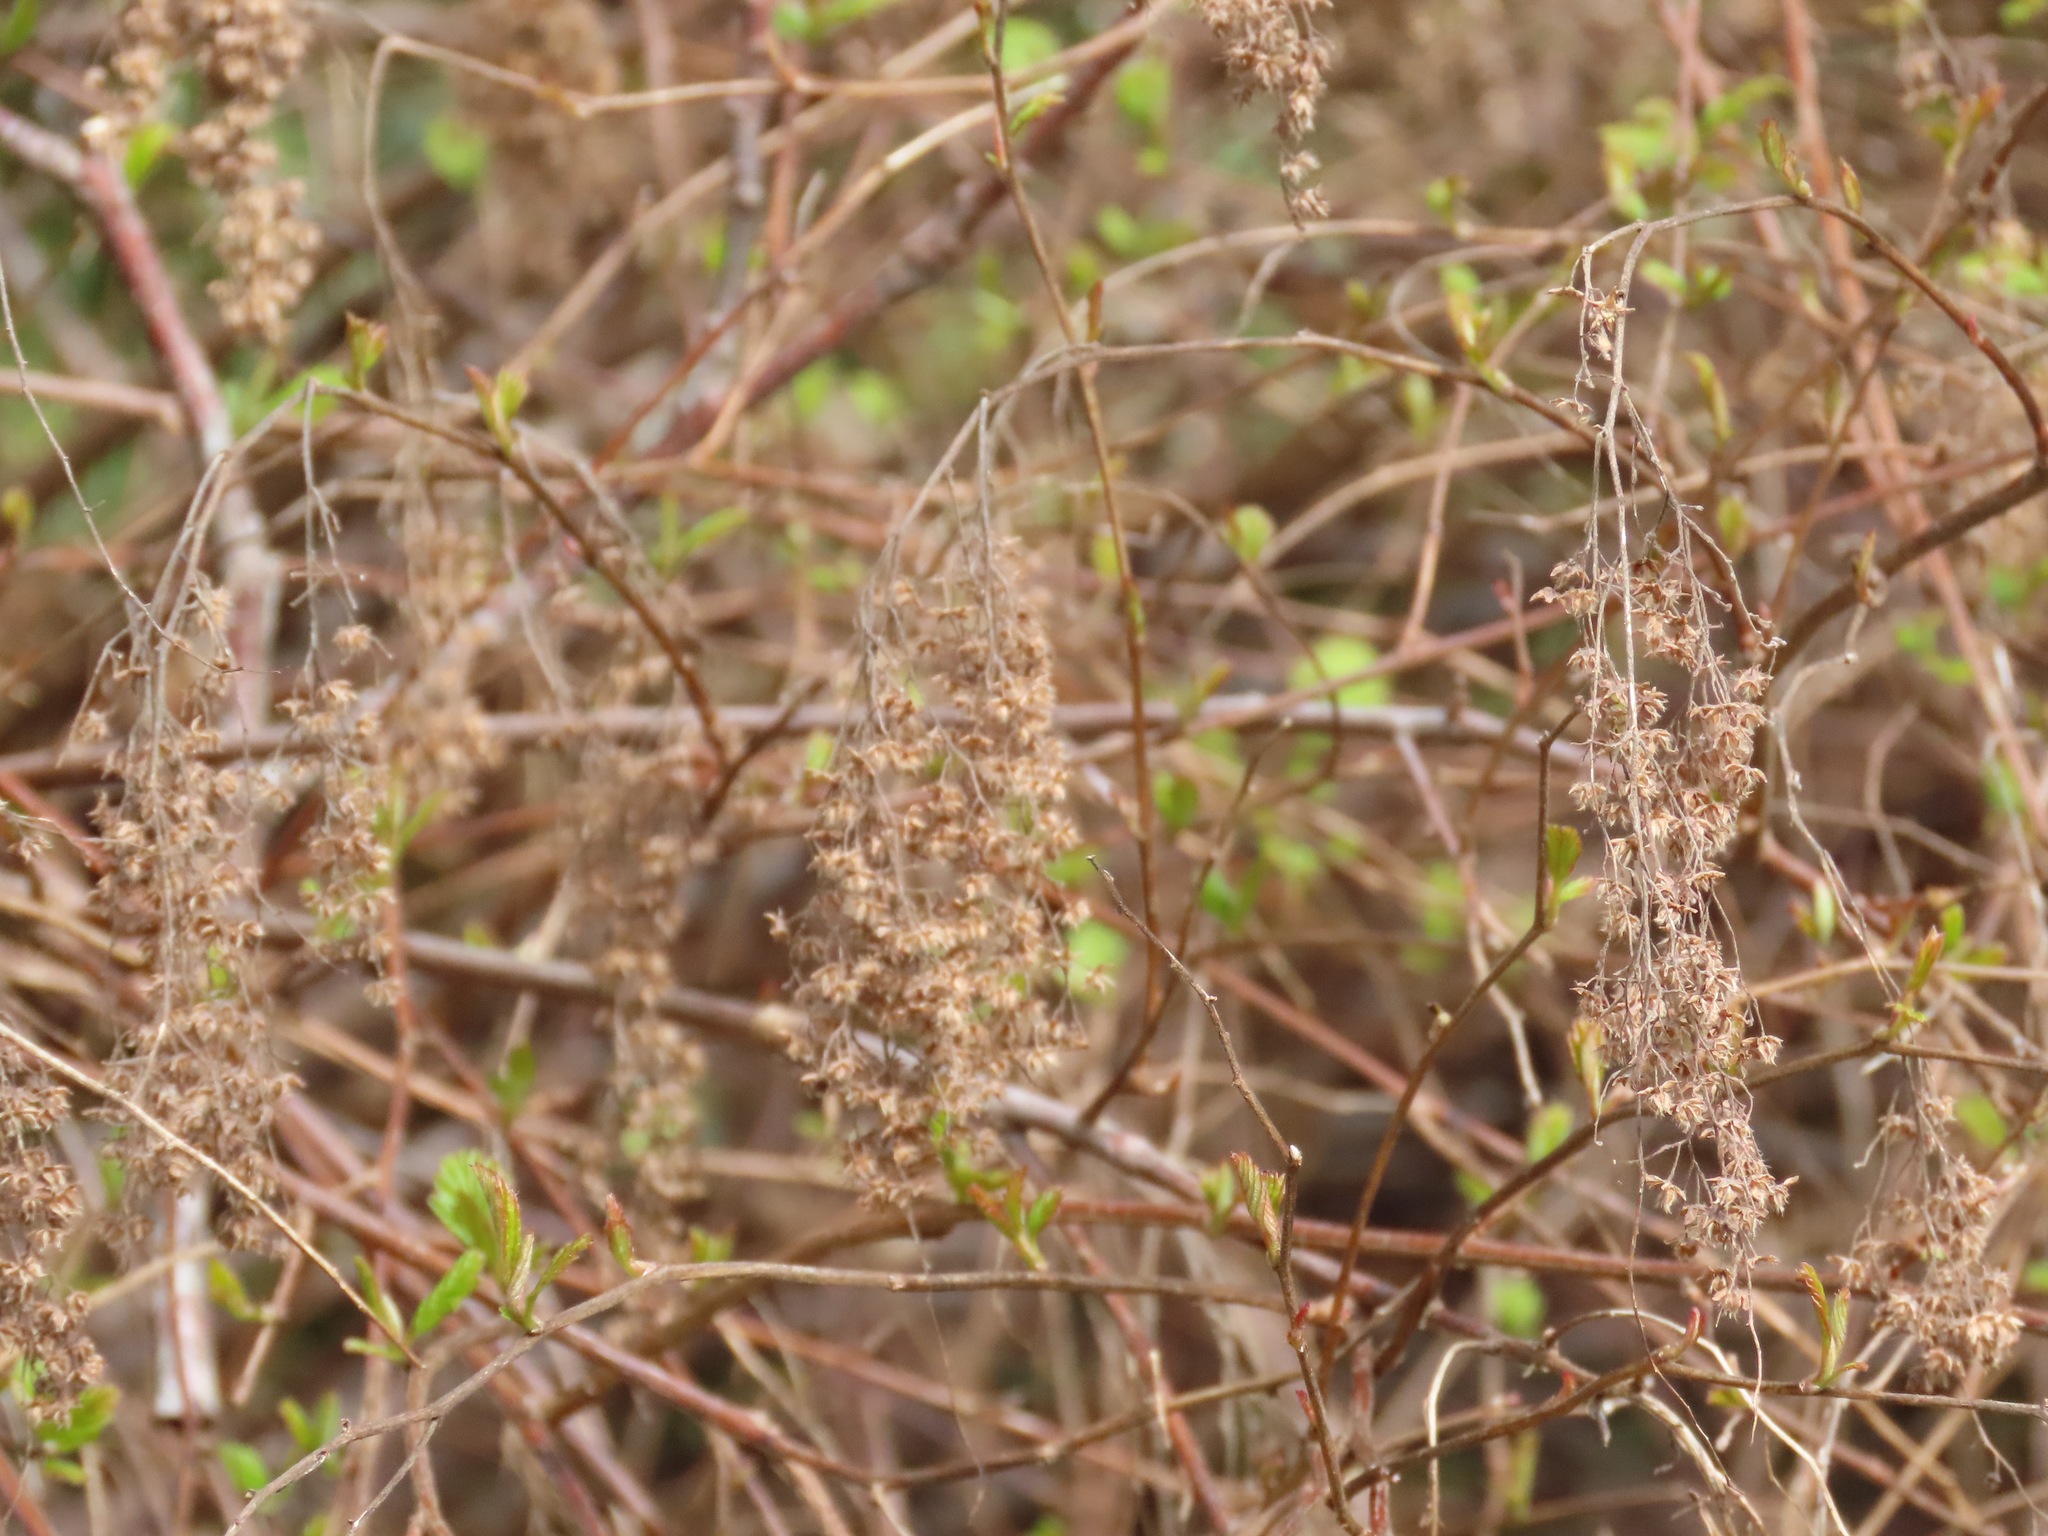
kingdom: Plantae
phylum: Tracheophyta
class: Magnoliopsida
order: Rosales
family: Rosaceae
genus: Holodiscus
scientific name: Holodiscus discolor
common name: Oceanspray
